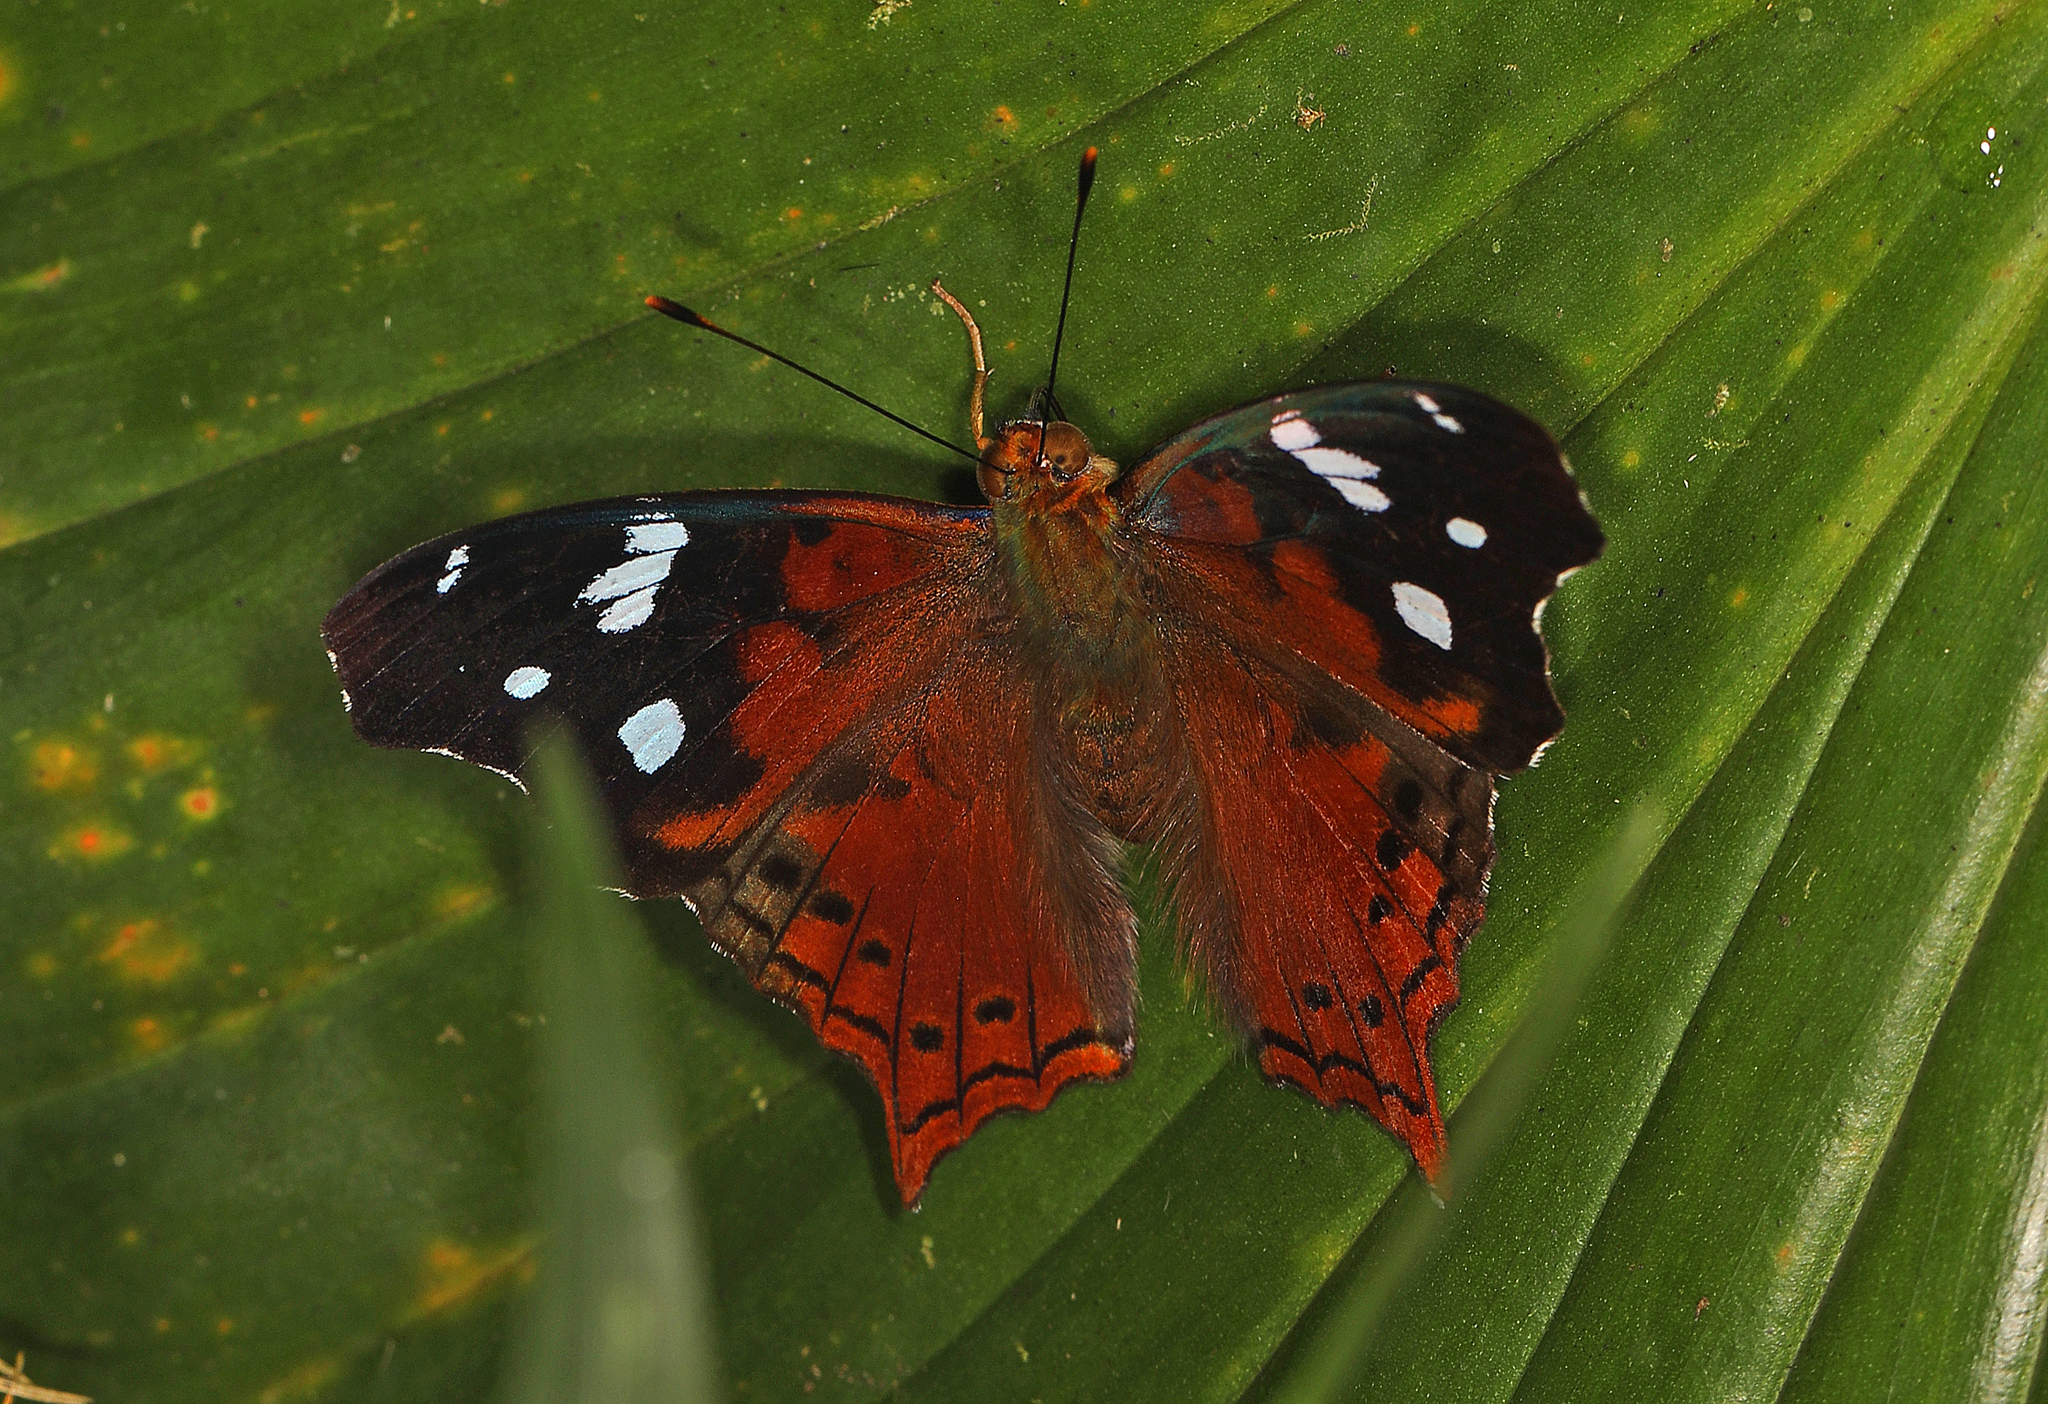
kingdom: Animalia
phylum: Arthropoda
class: Insecta
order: Lepidoptera
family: Nymphalidae
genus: Hypanartia
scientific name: Hypanartia trimaculata
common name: Reddish mapwing
